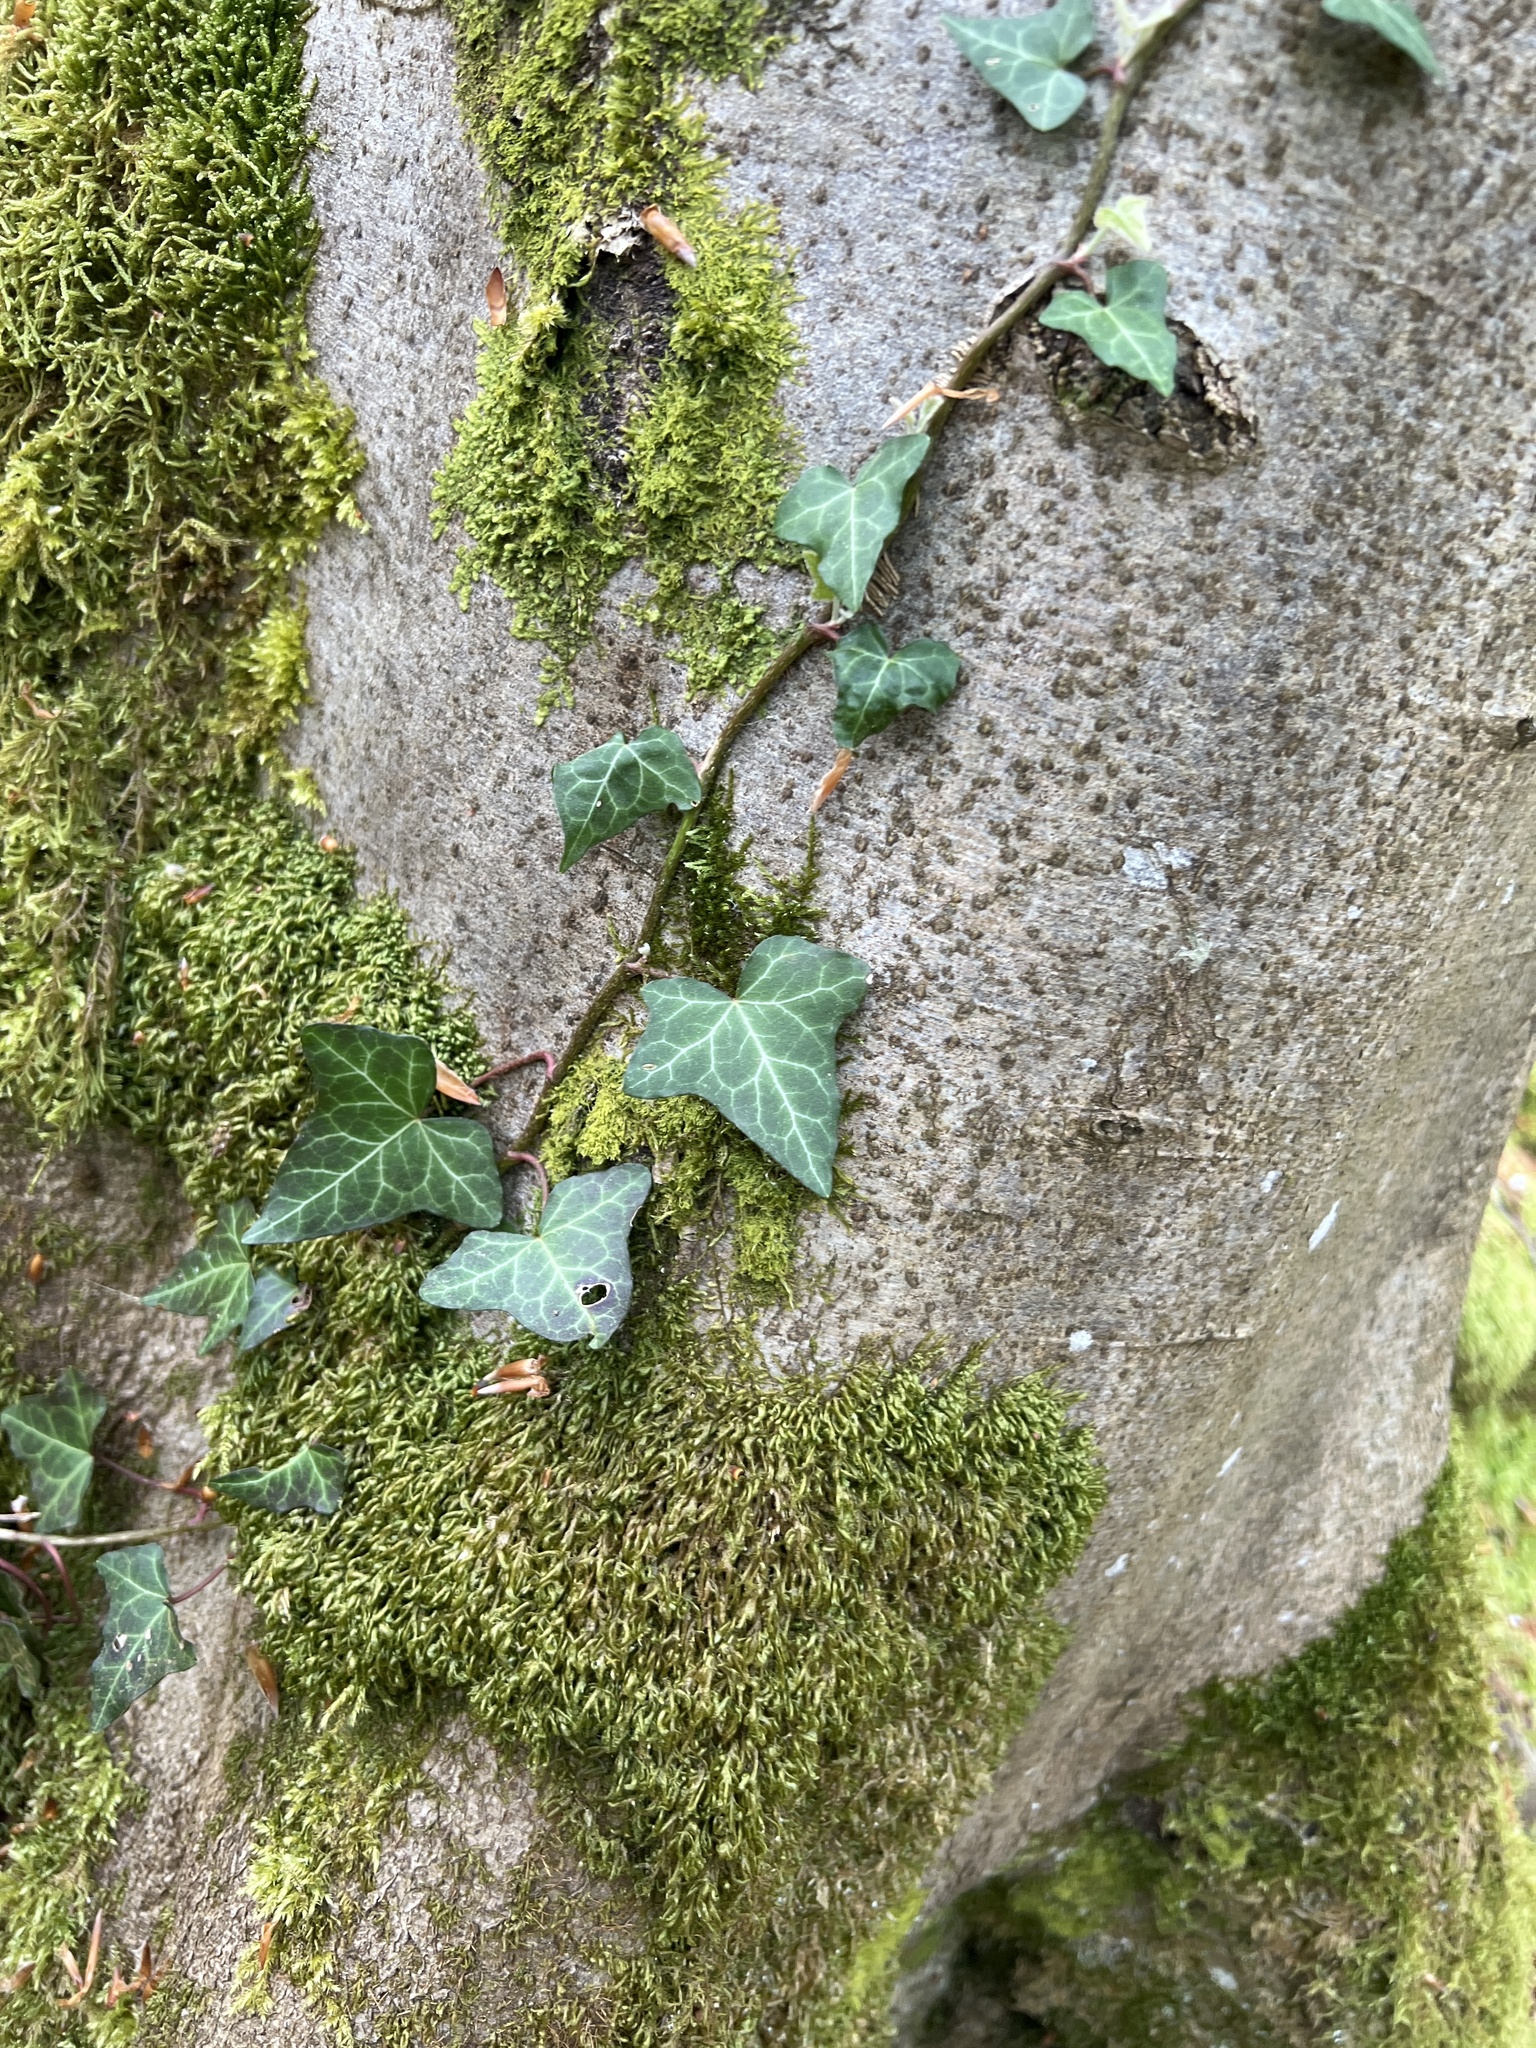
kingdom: Plantae
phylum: Tracheophyta
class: Magnoliopsida
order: Apiales
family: Araliaceae
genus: Hedera
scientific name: Hedera helix
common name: Ivy
